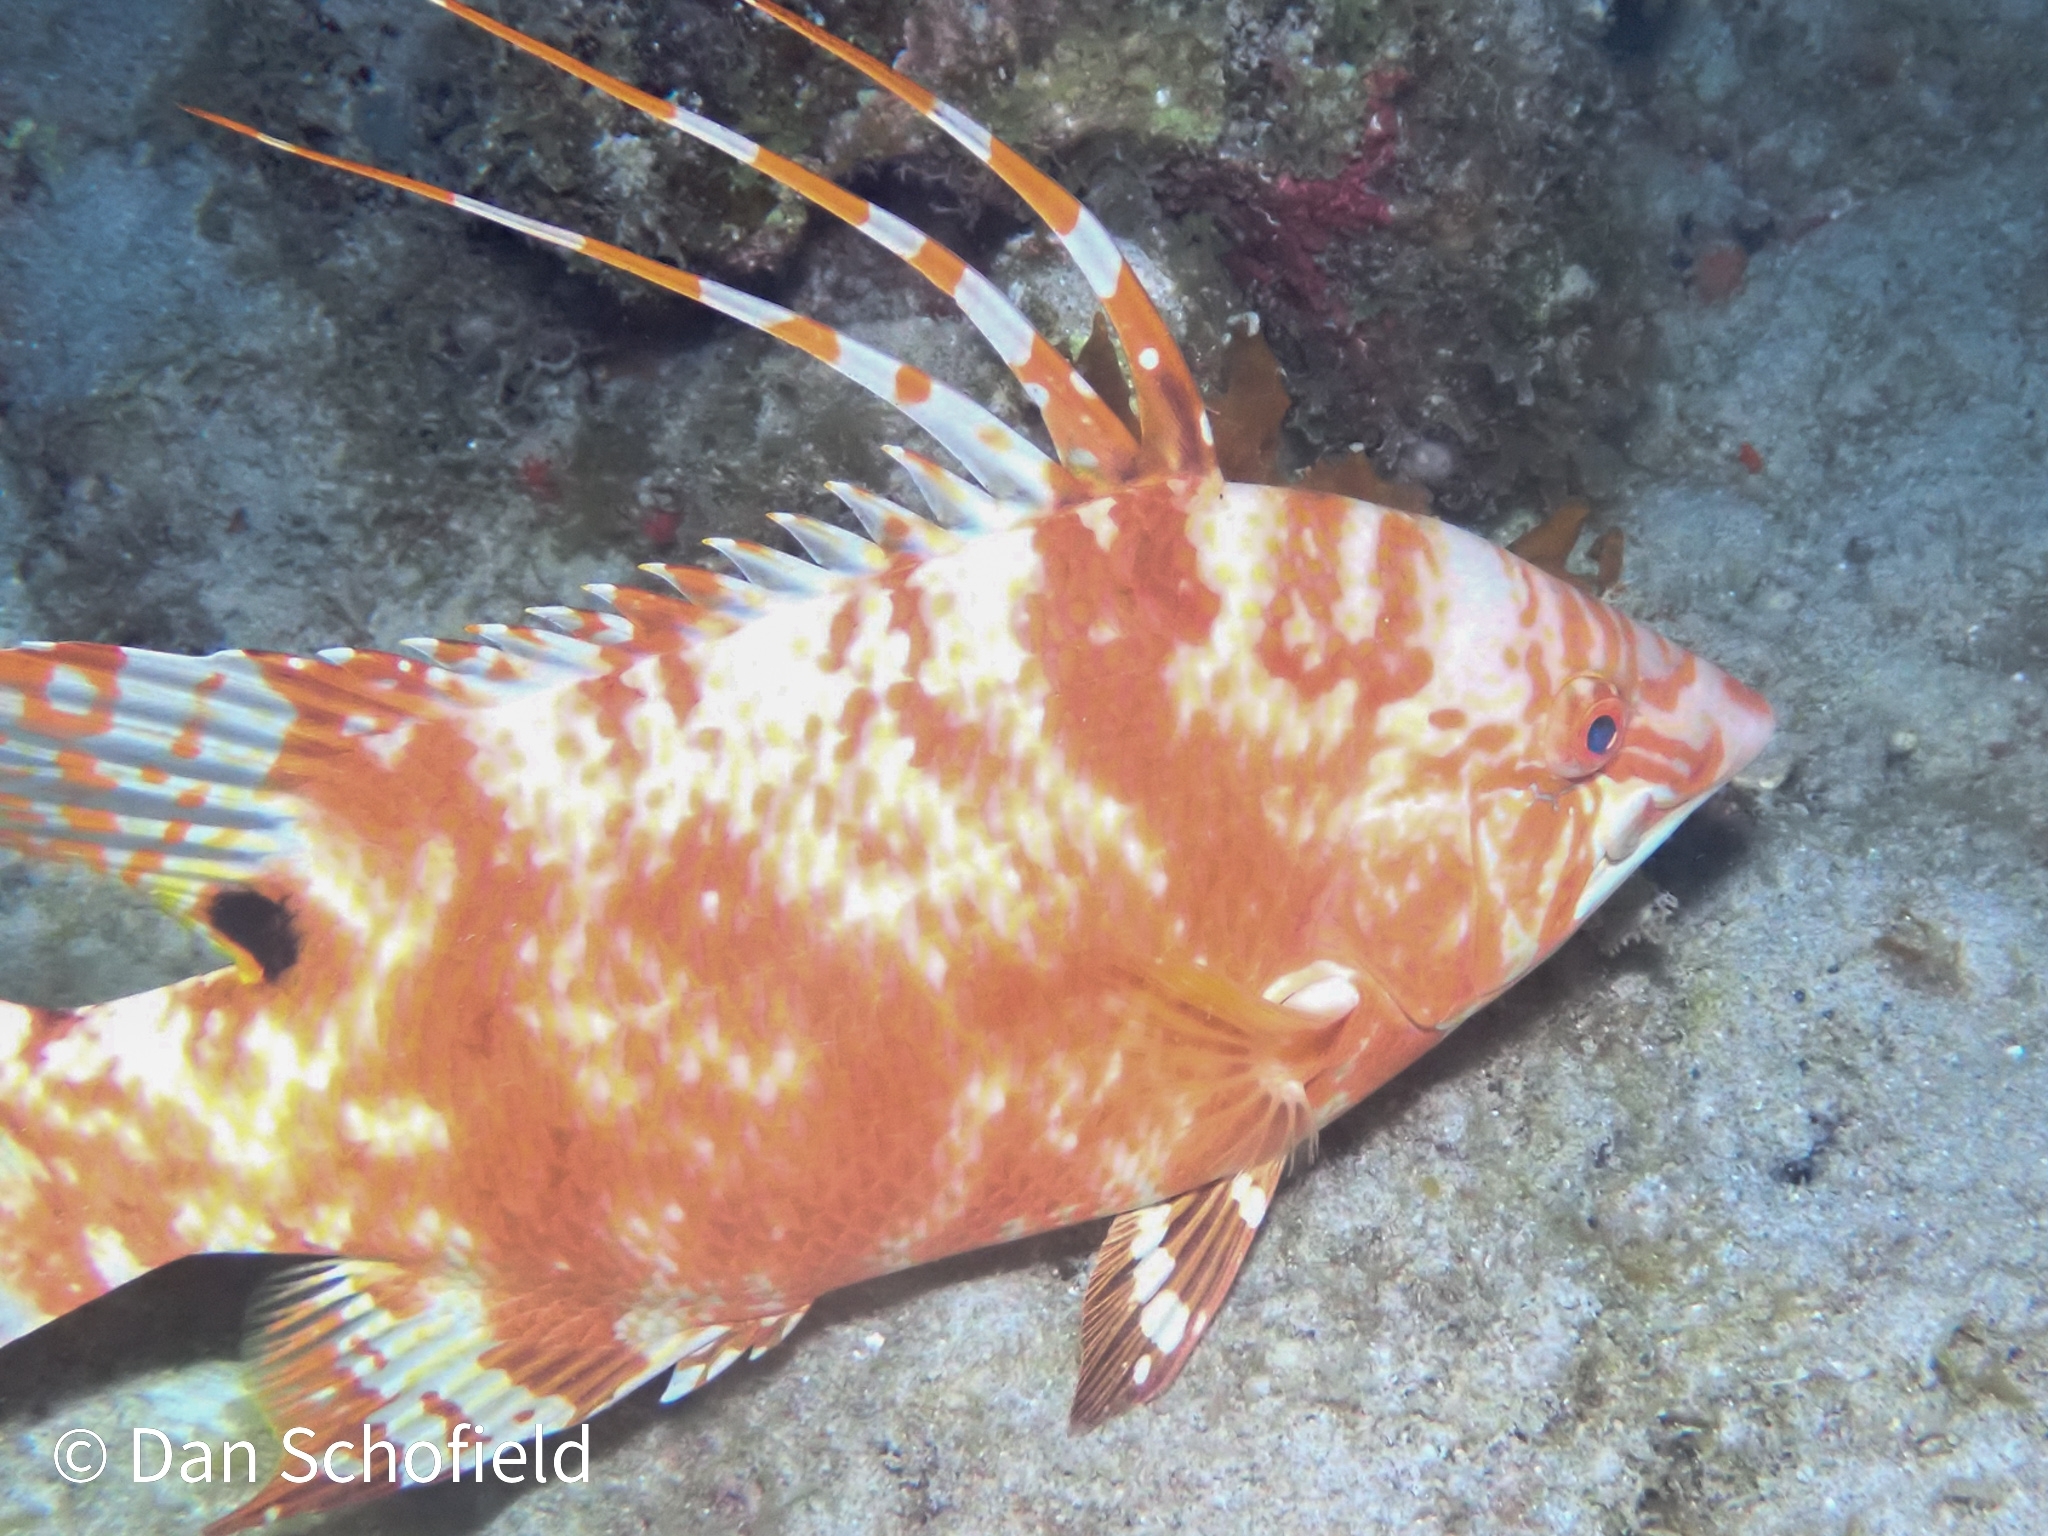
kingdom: Animalia
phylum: Chordata
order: Perciformes
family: Labridae
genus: Lachnolaimus
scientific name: Lachnolaimus maximus
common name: Hogfish
